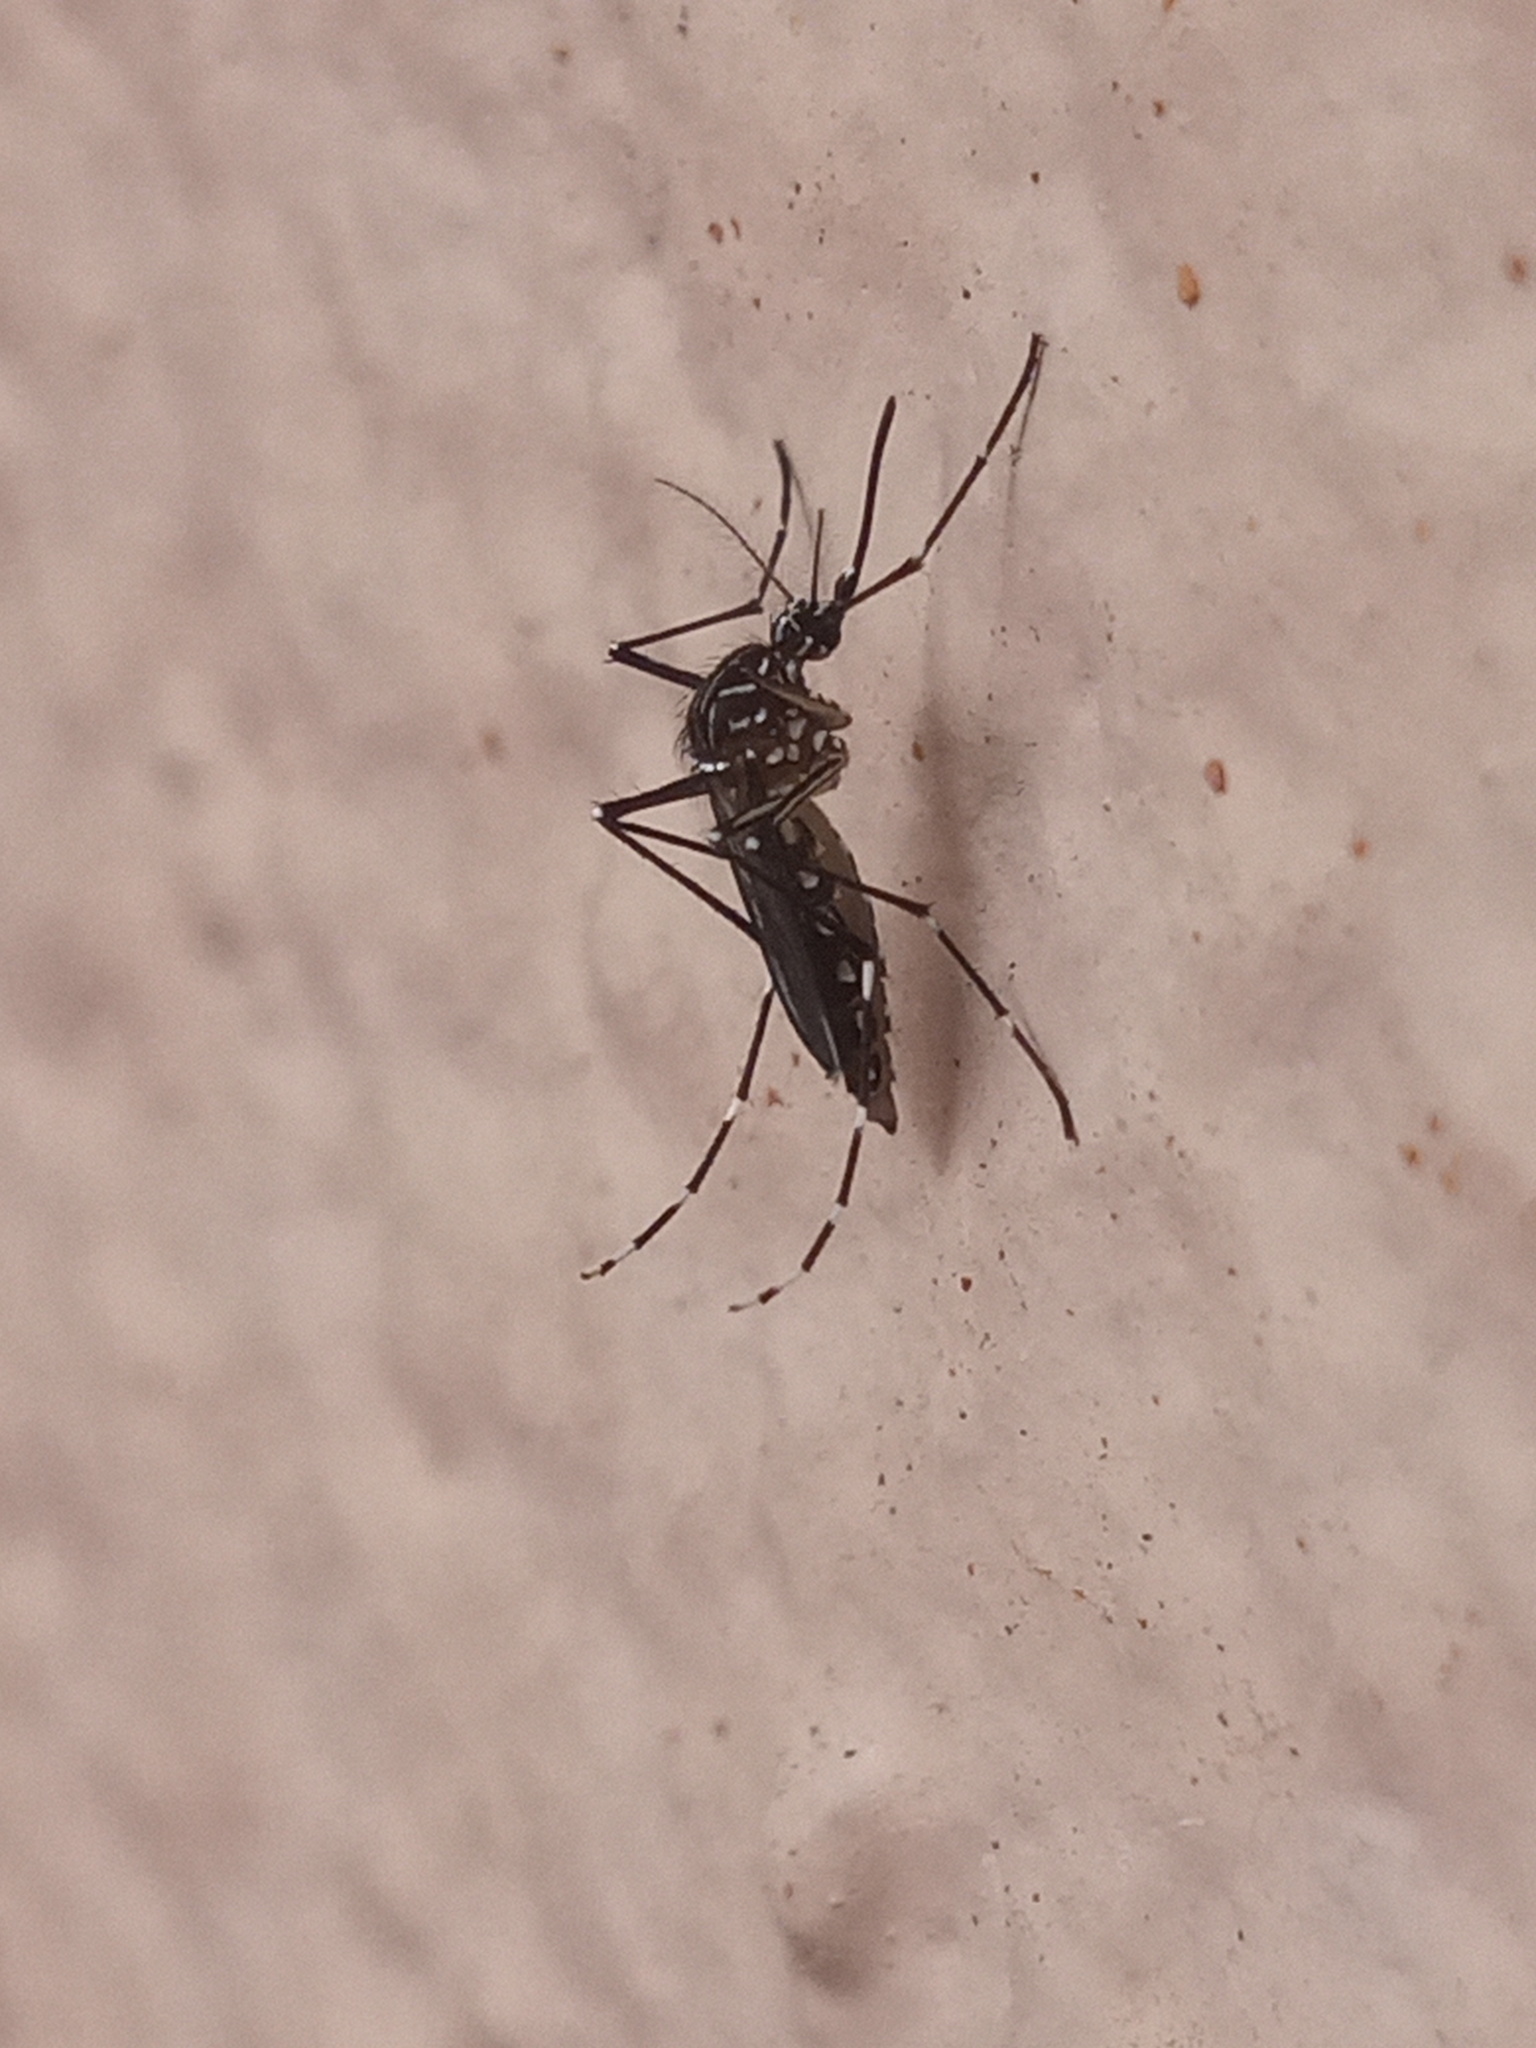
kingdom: Animalia
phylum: Arthropoda
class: Insecta
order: Diptera
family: Culicidae
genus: Aedes
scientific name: Aedes aegypti
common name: Yellow fever mosquito
